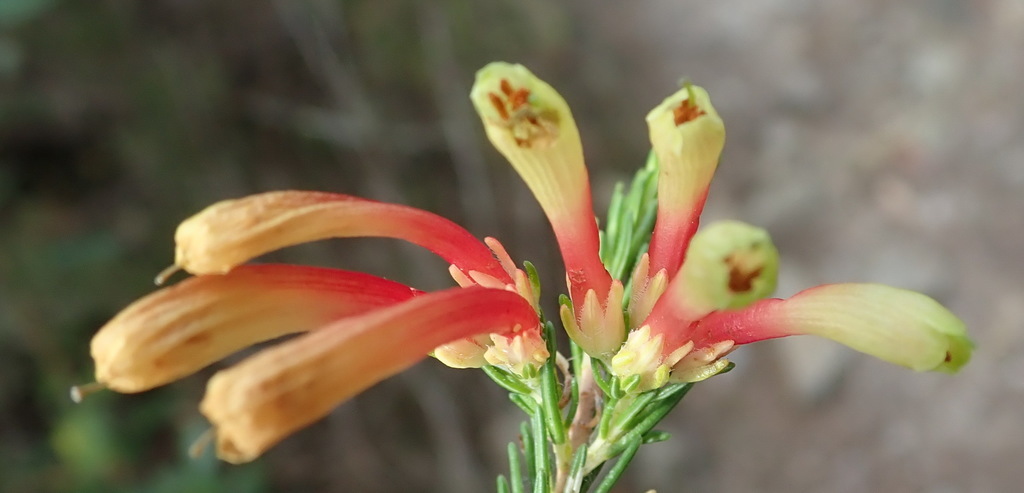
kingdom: Plantae
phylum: Tracheophyta
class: Magnoliopsida
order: Ericales
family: Ericaceae
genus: Erica
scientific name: Erica unicolor
